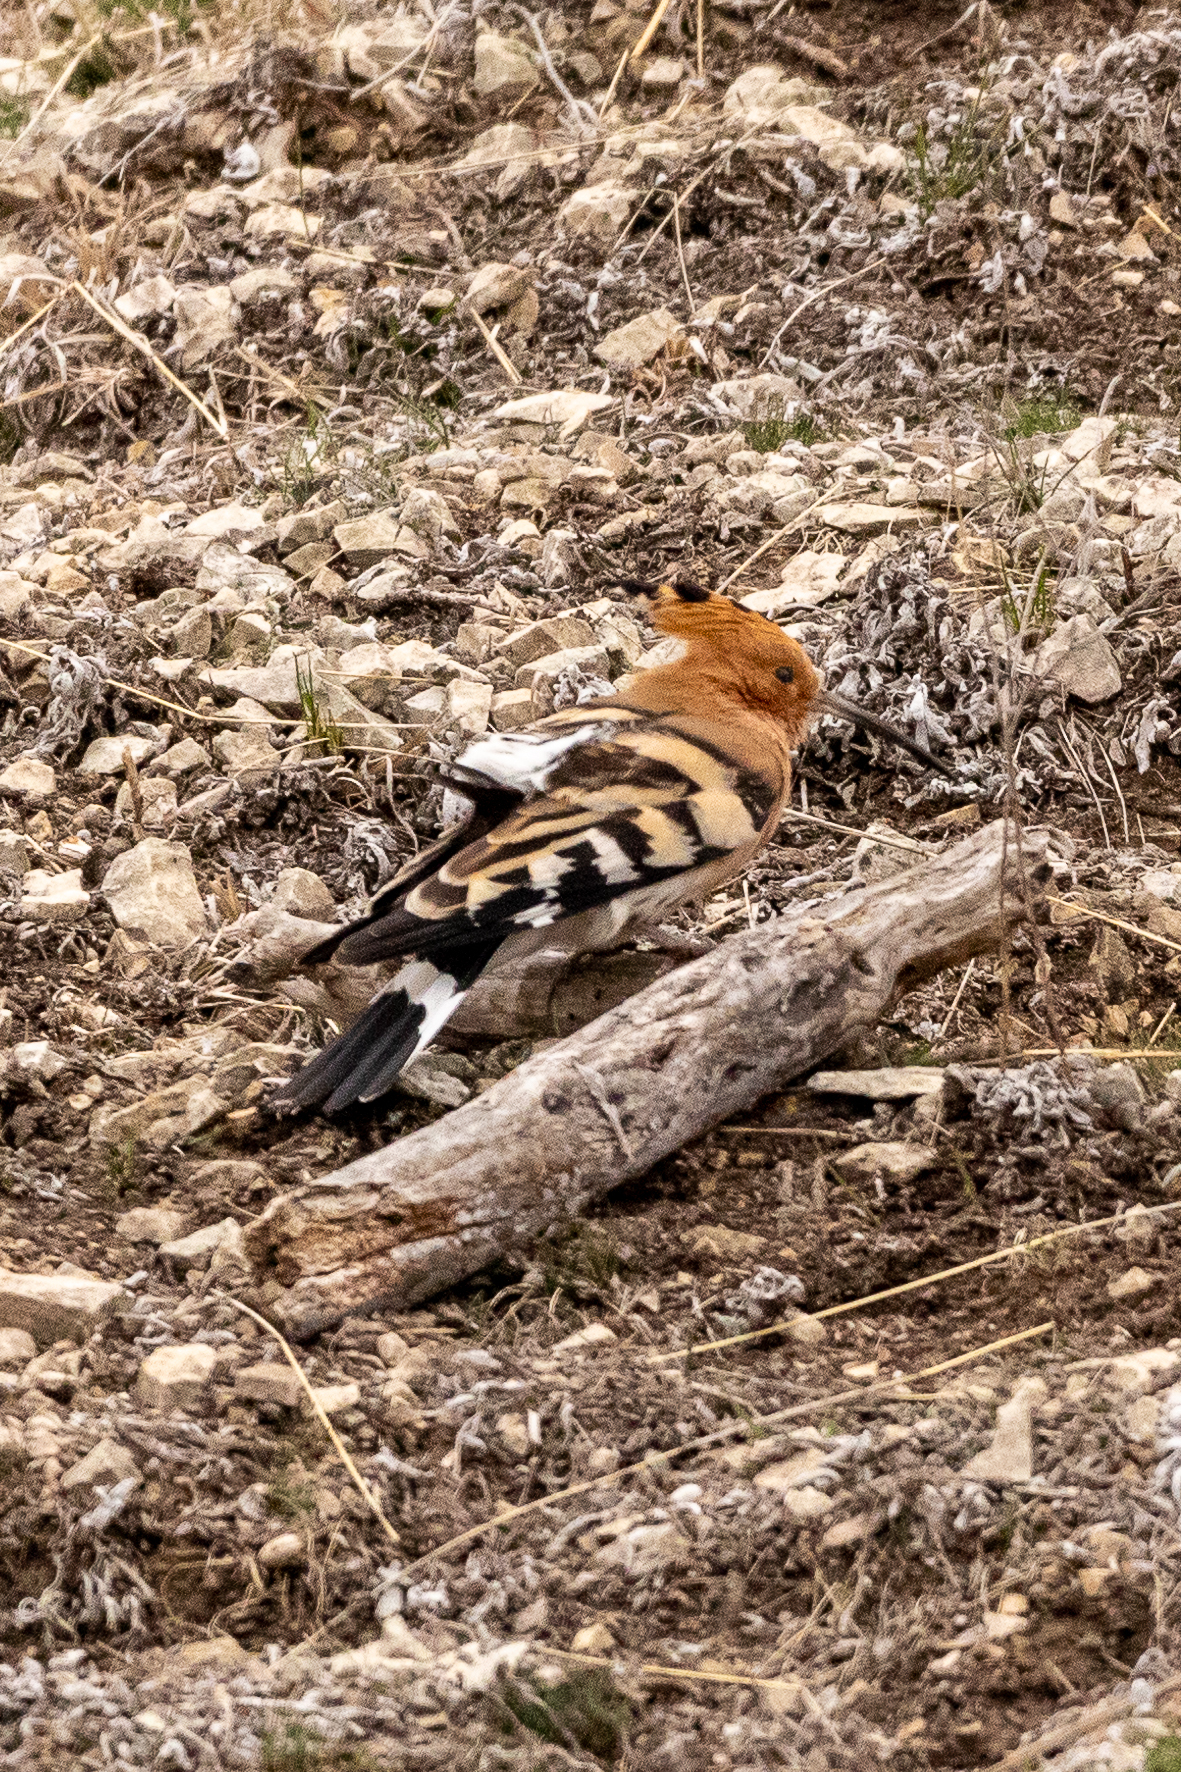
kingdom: Animalia
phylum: Chordata
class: Aves
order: Bucerotiformes
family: Upupidae
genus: Upupa
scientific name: Upupa epops
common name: Eurasian hoopoe
